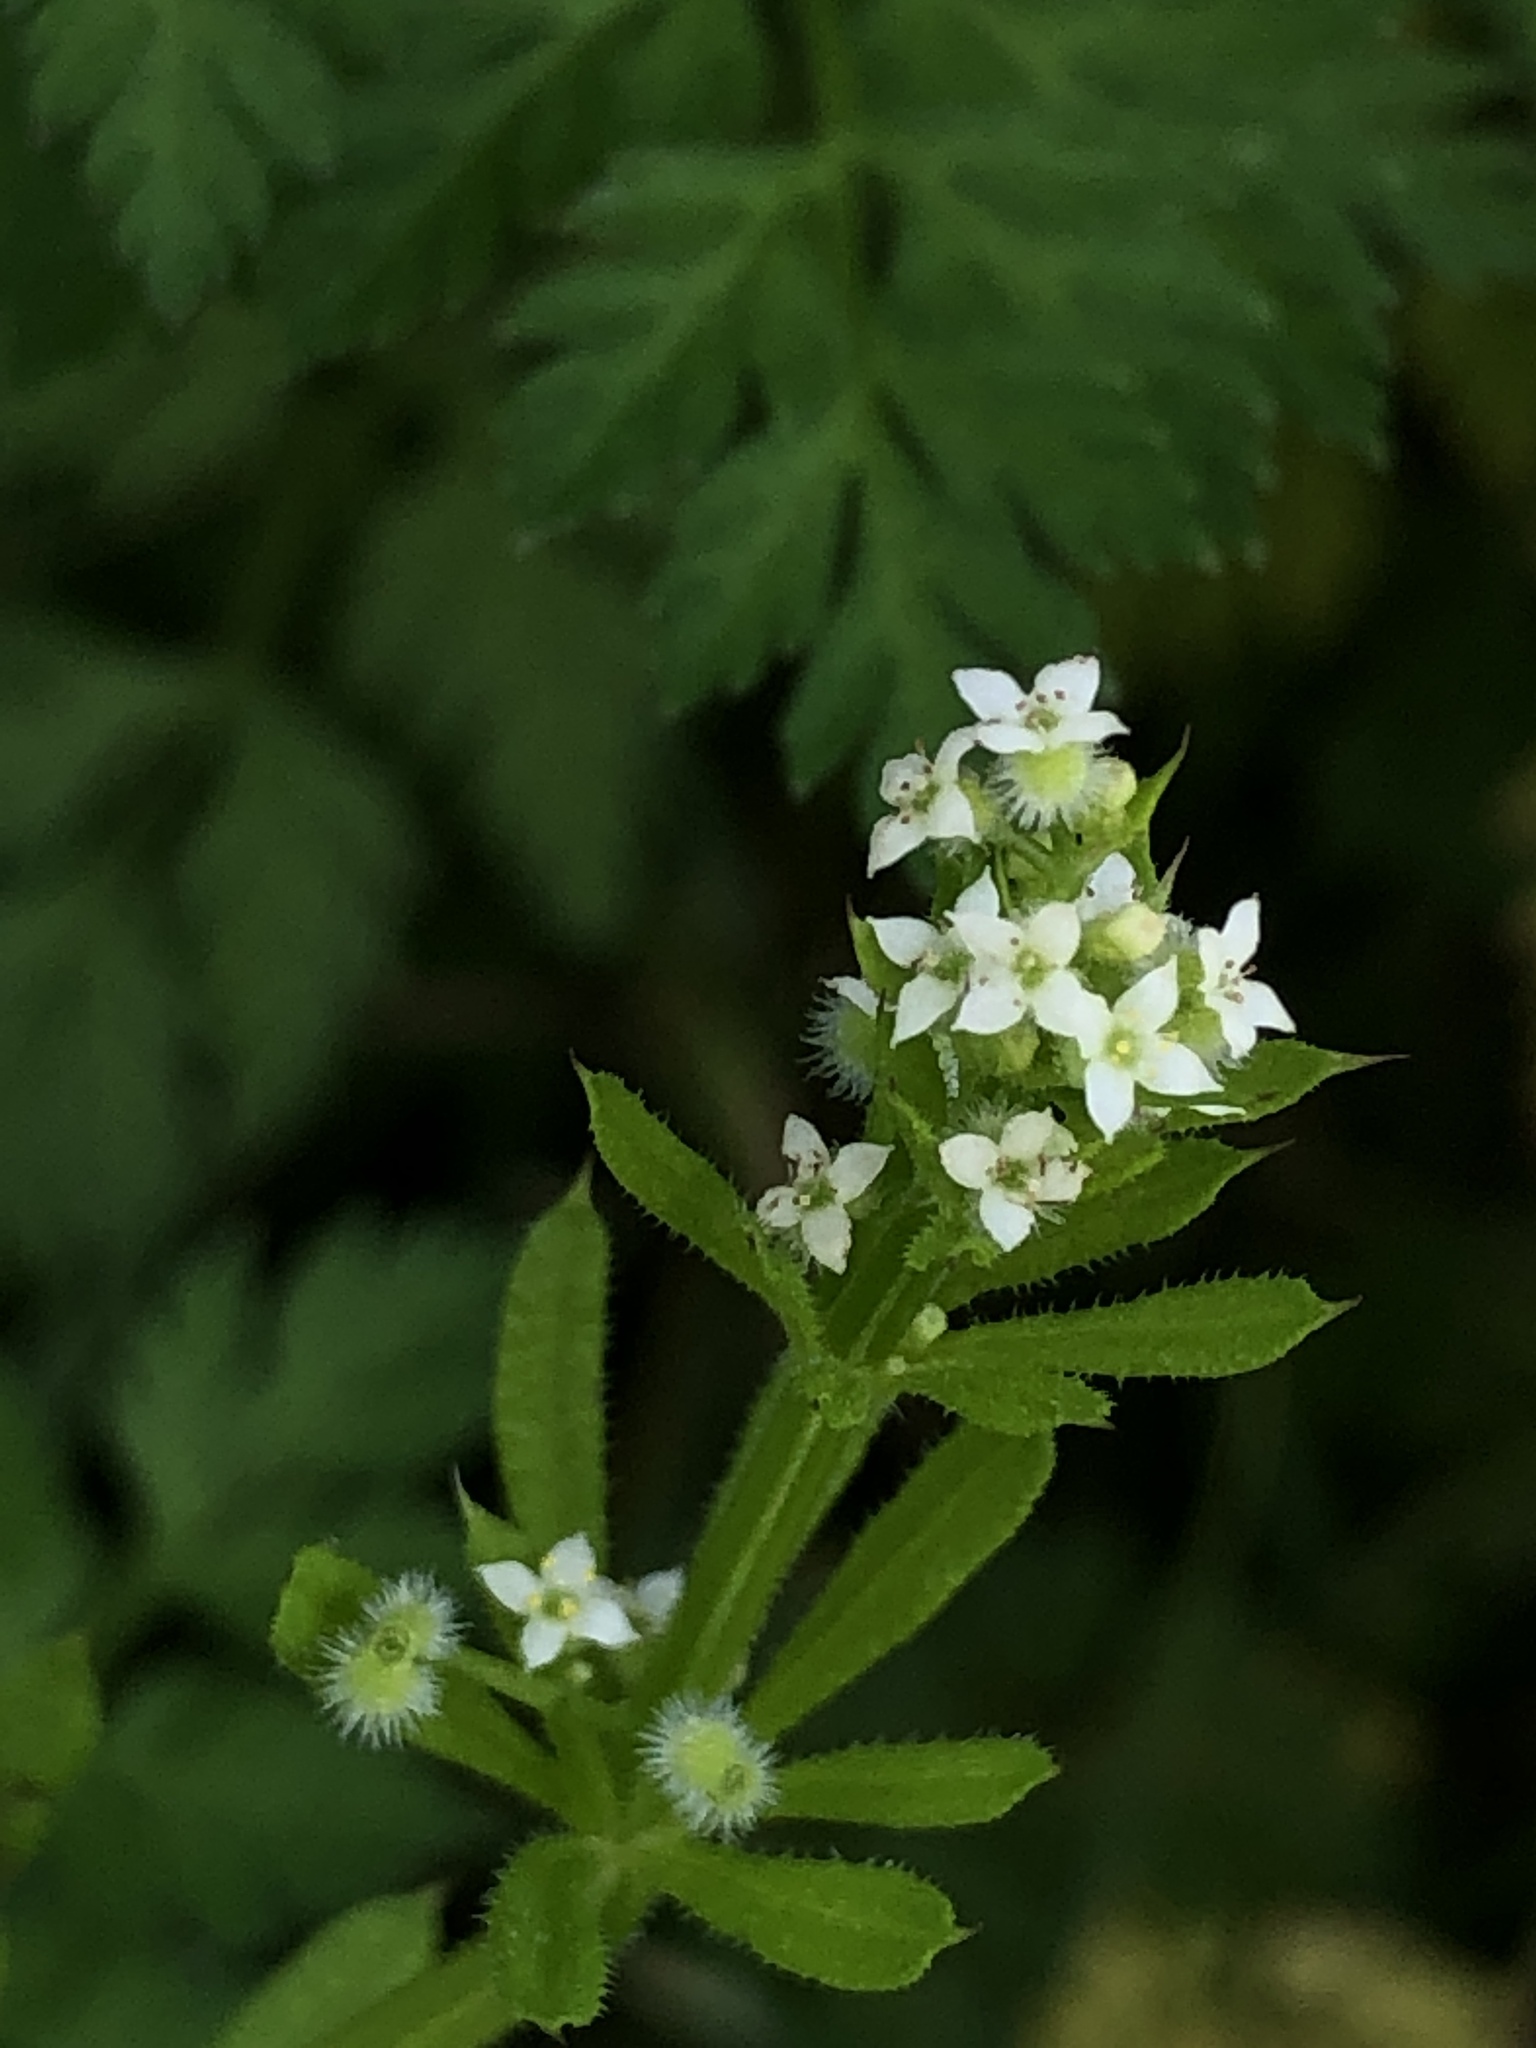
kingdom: Plantae
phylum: Tracheophyta
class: Magnoliopsida
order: Gentianales
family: Rubiaceae
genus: Galium
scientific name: Galium aparine
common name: Cleavers
